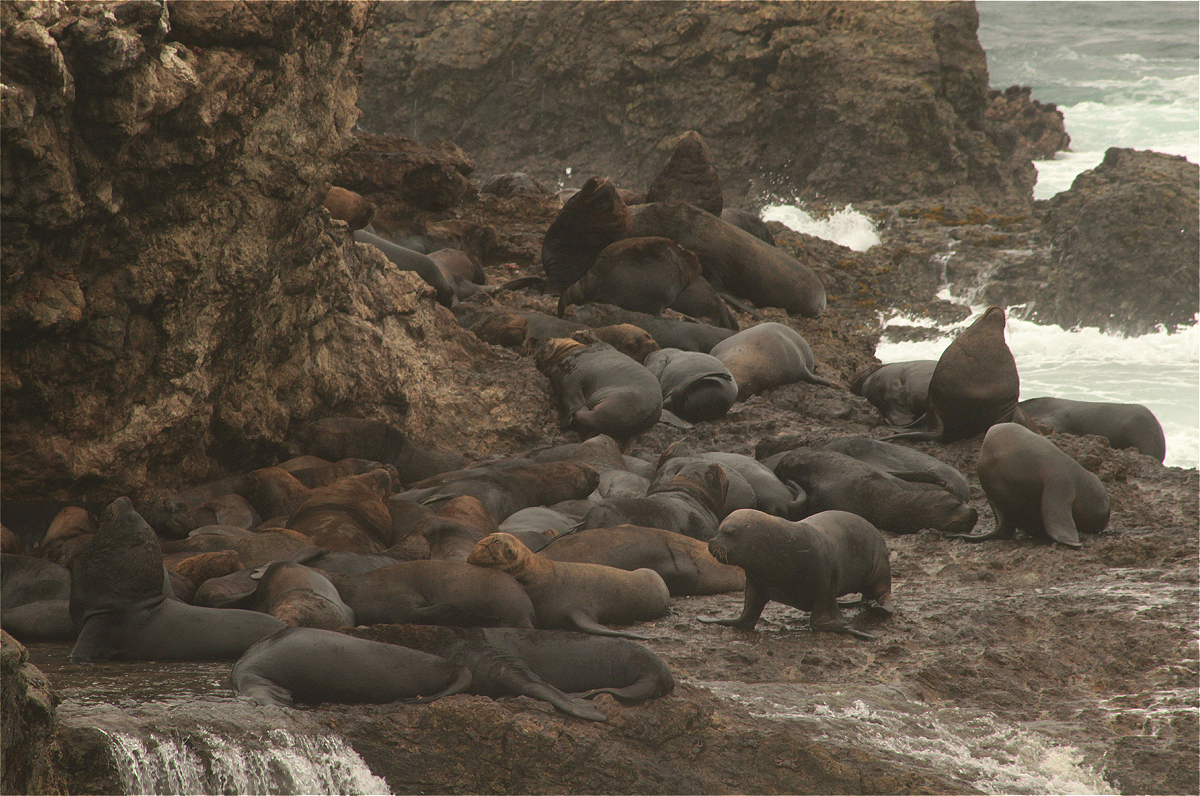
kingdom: Animalia
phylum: Chordata
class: Mammalia
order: Carnivora
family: Otariidae
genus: Otaria
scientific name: Otaria byronia
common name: South american sea lion
